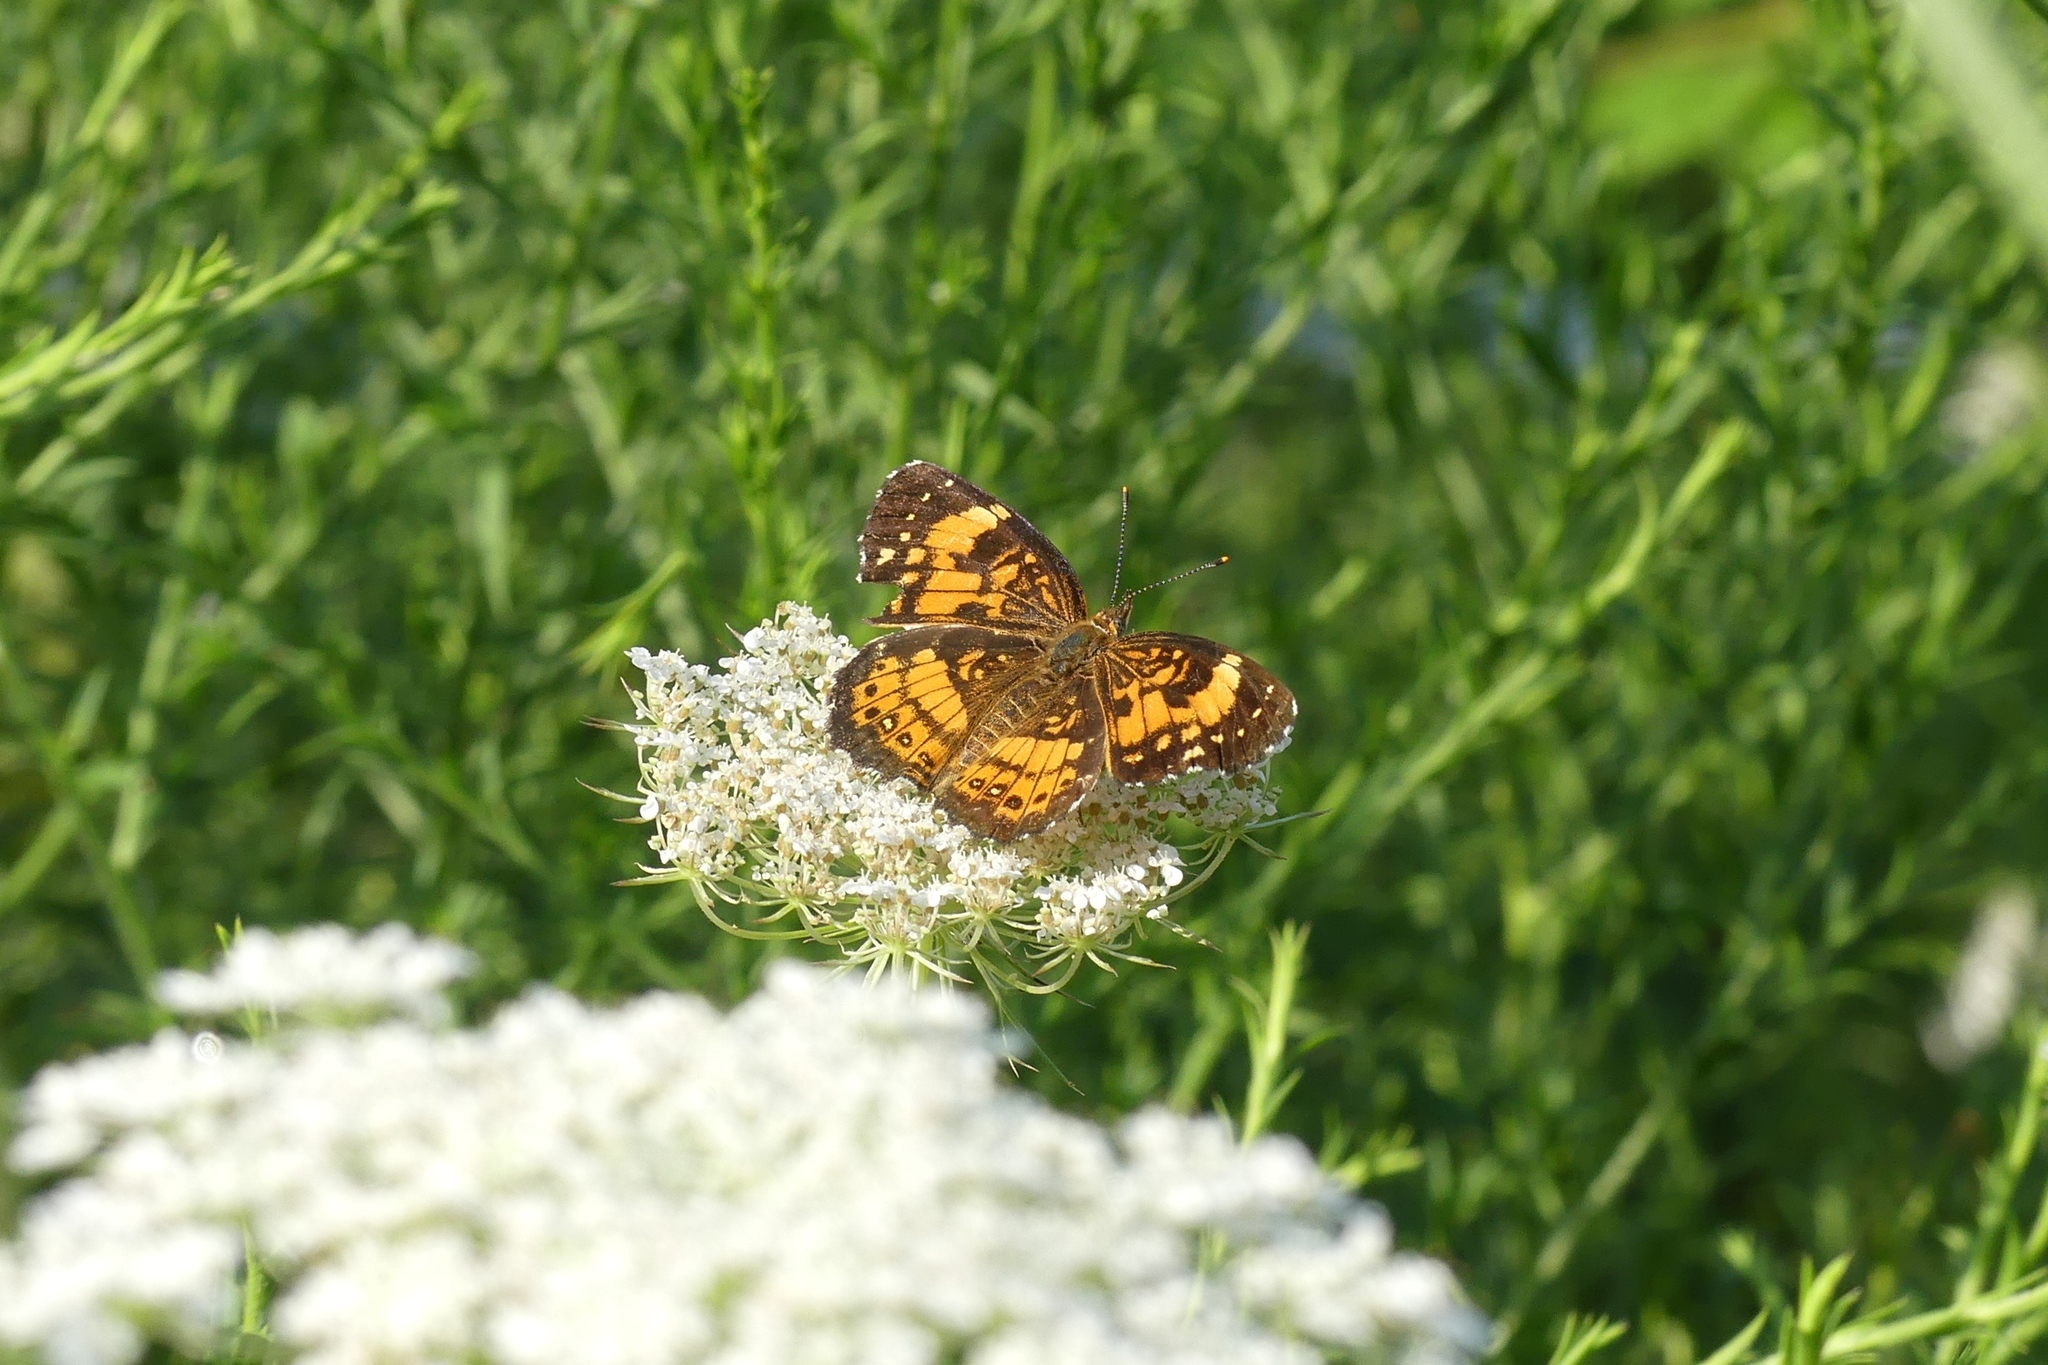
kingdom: Animalia
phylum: Arthropoda
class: Insecta
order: Lepidoptera
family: Nymphalidae
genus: Chlosyne
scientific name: Chlosyne nycteis
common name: Silvery checkerspot
